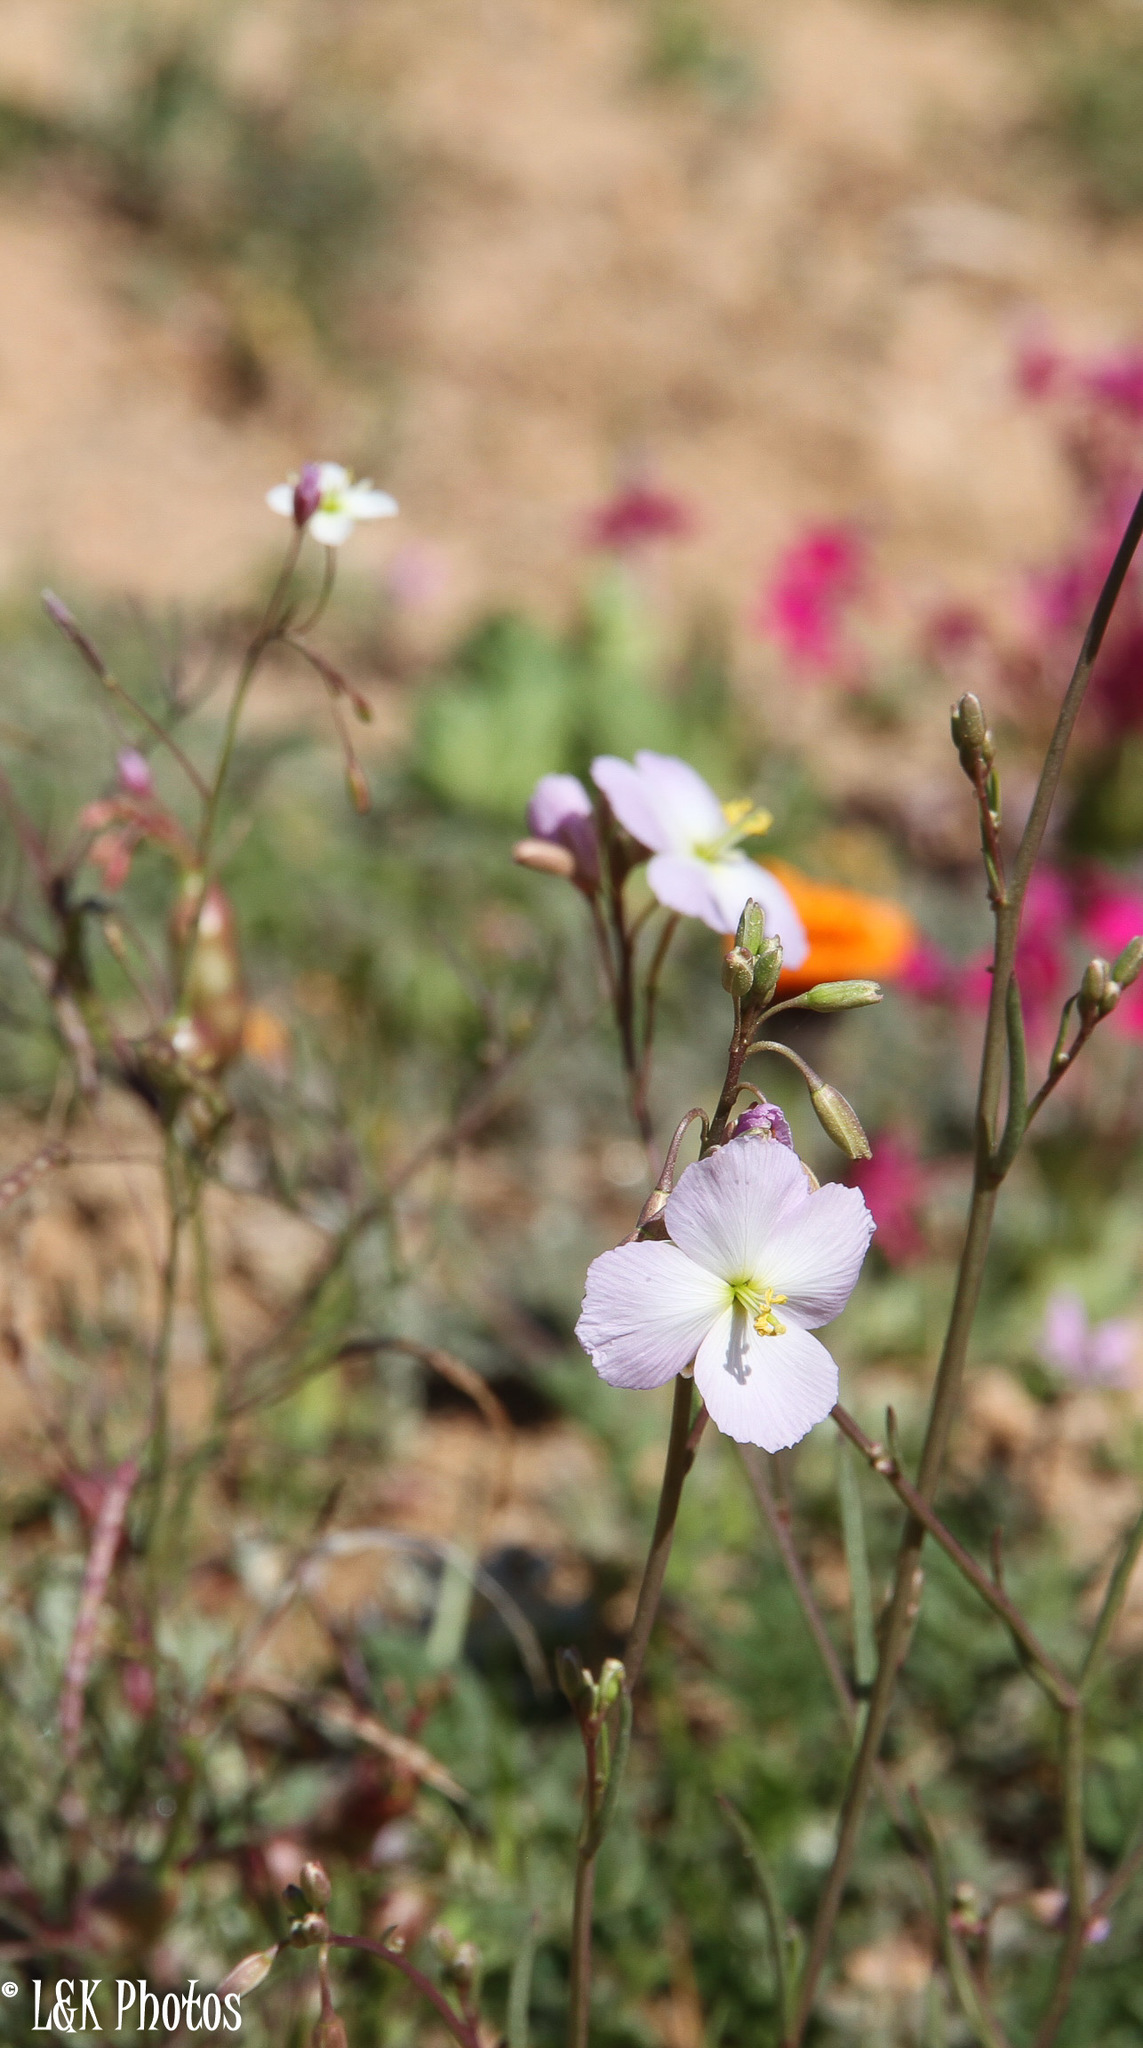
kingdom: Plantae
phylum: Tracheophyta
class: Magnoliopsida
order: Brassicales
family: Brassicaceae
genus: Heliophila
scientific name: Heliophila carnosa
